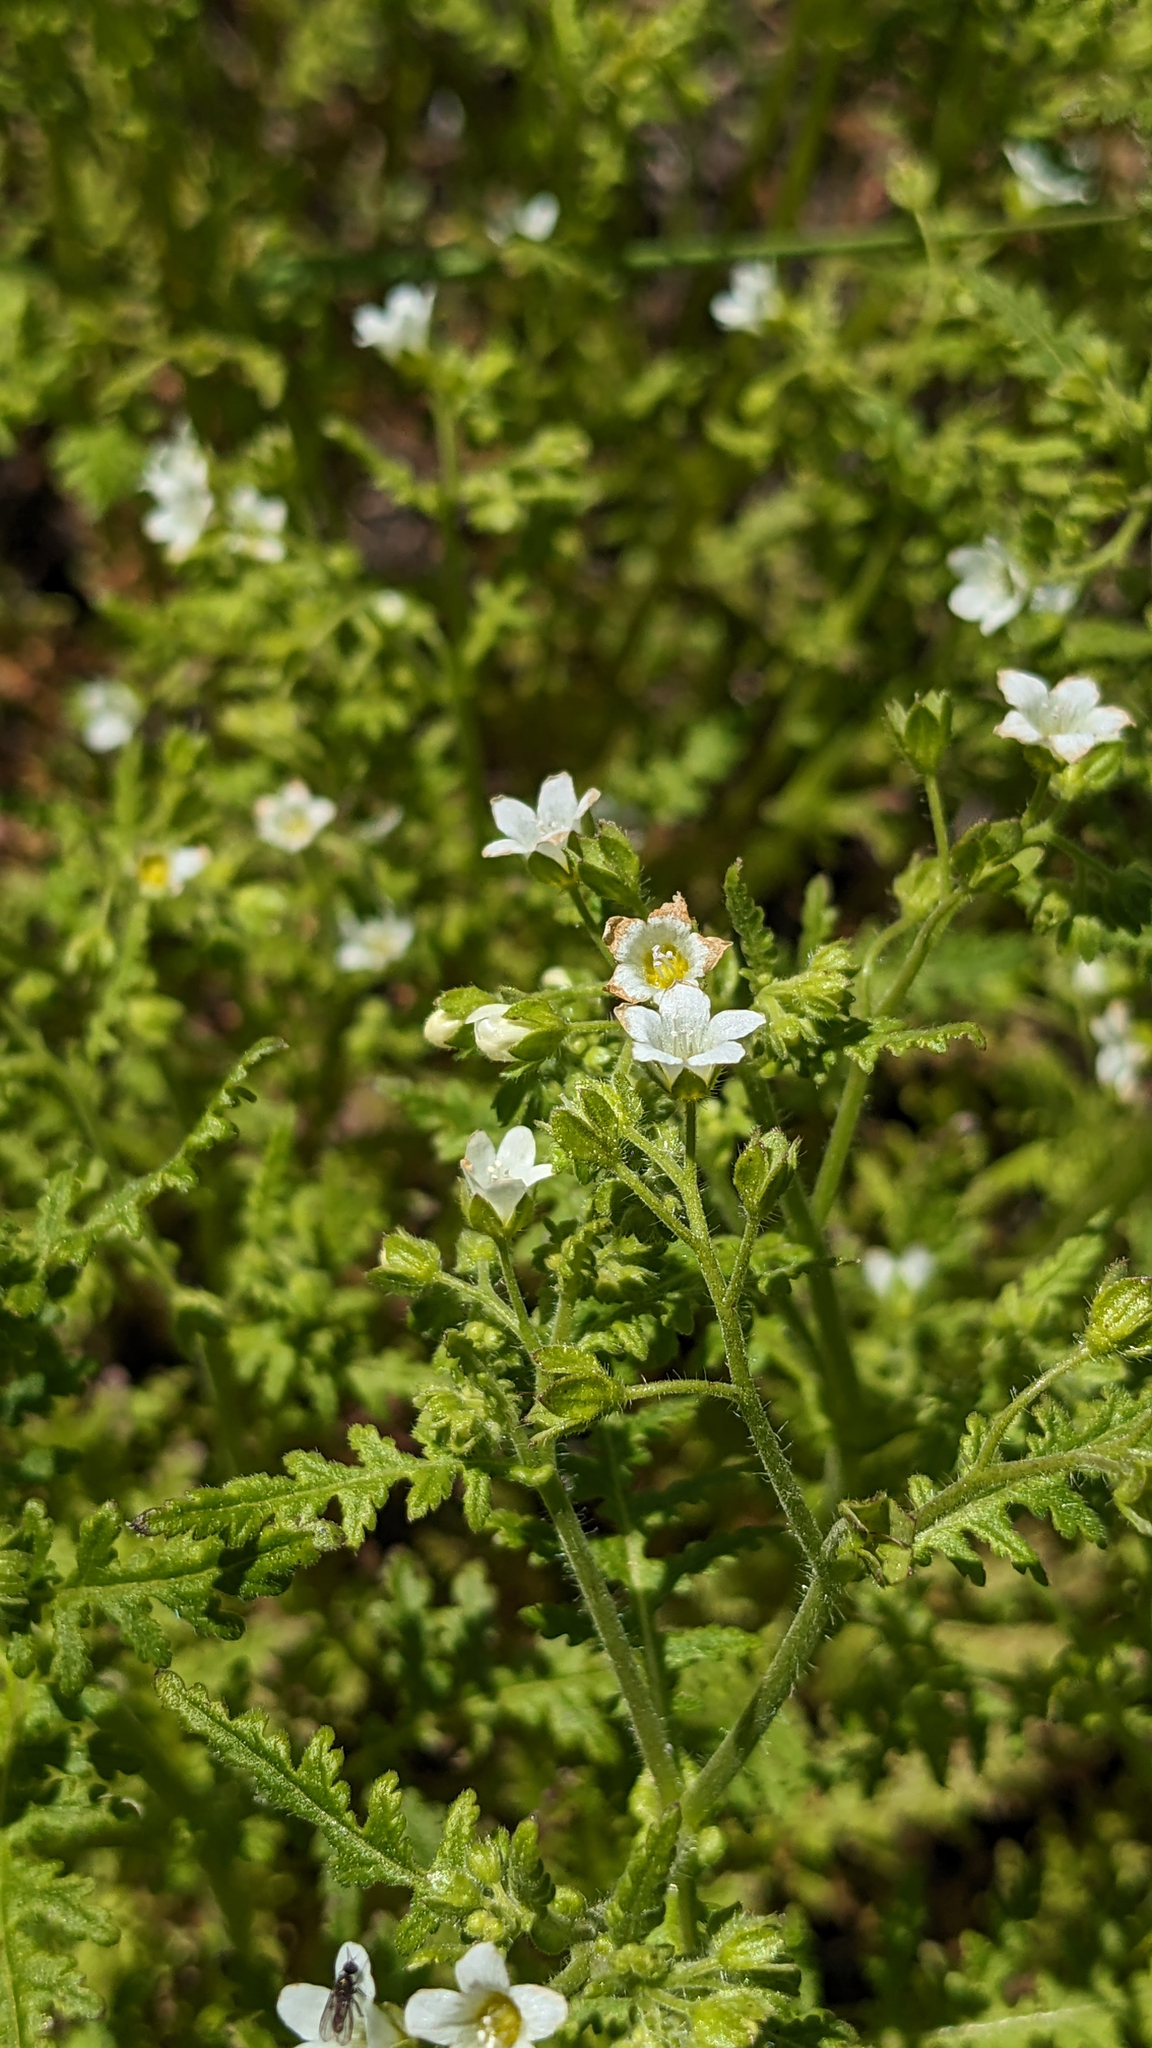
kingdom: Plantae
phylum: Tracheophyta
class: Magnoliopsida
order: Boraginales
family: Hydrophyllaceae
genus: Eucrypta
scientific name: Eucrypta chrysanthemifolia
